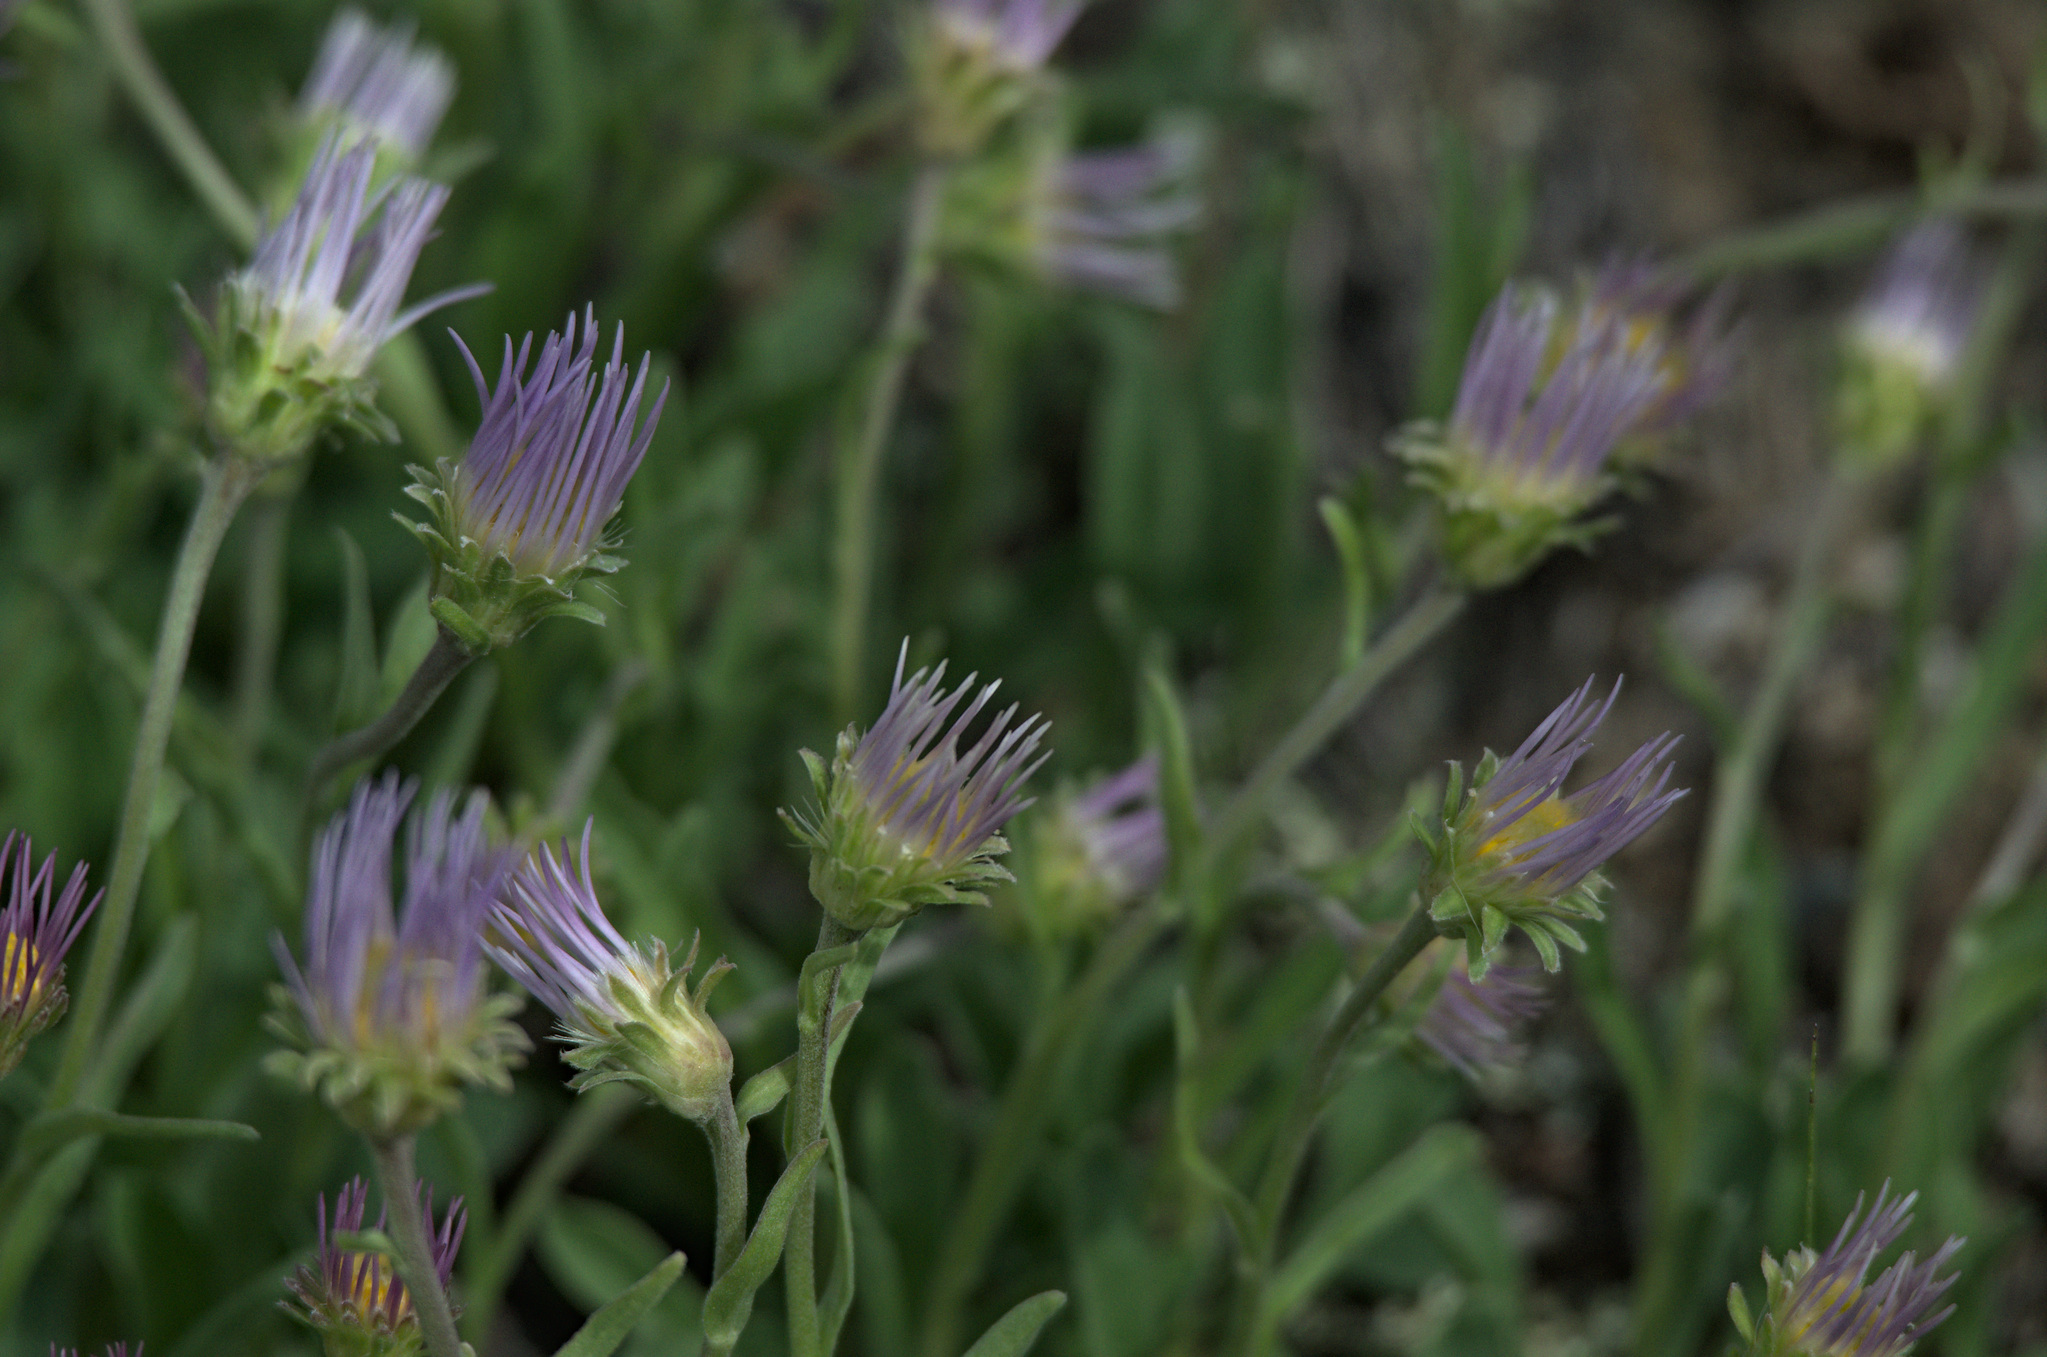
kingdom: Plantae
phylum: Tracheophyta
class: Magnoliopsida
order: Asterales
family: Asteraceae
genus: Aster
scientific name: Aster alpinus
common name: Alpine aster
